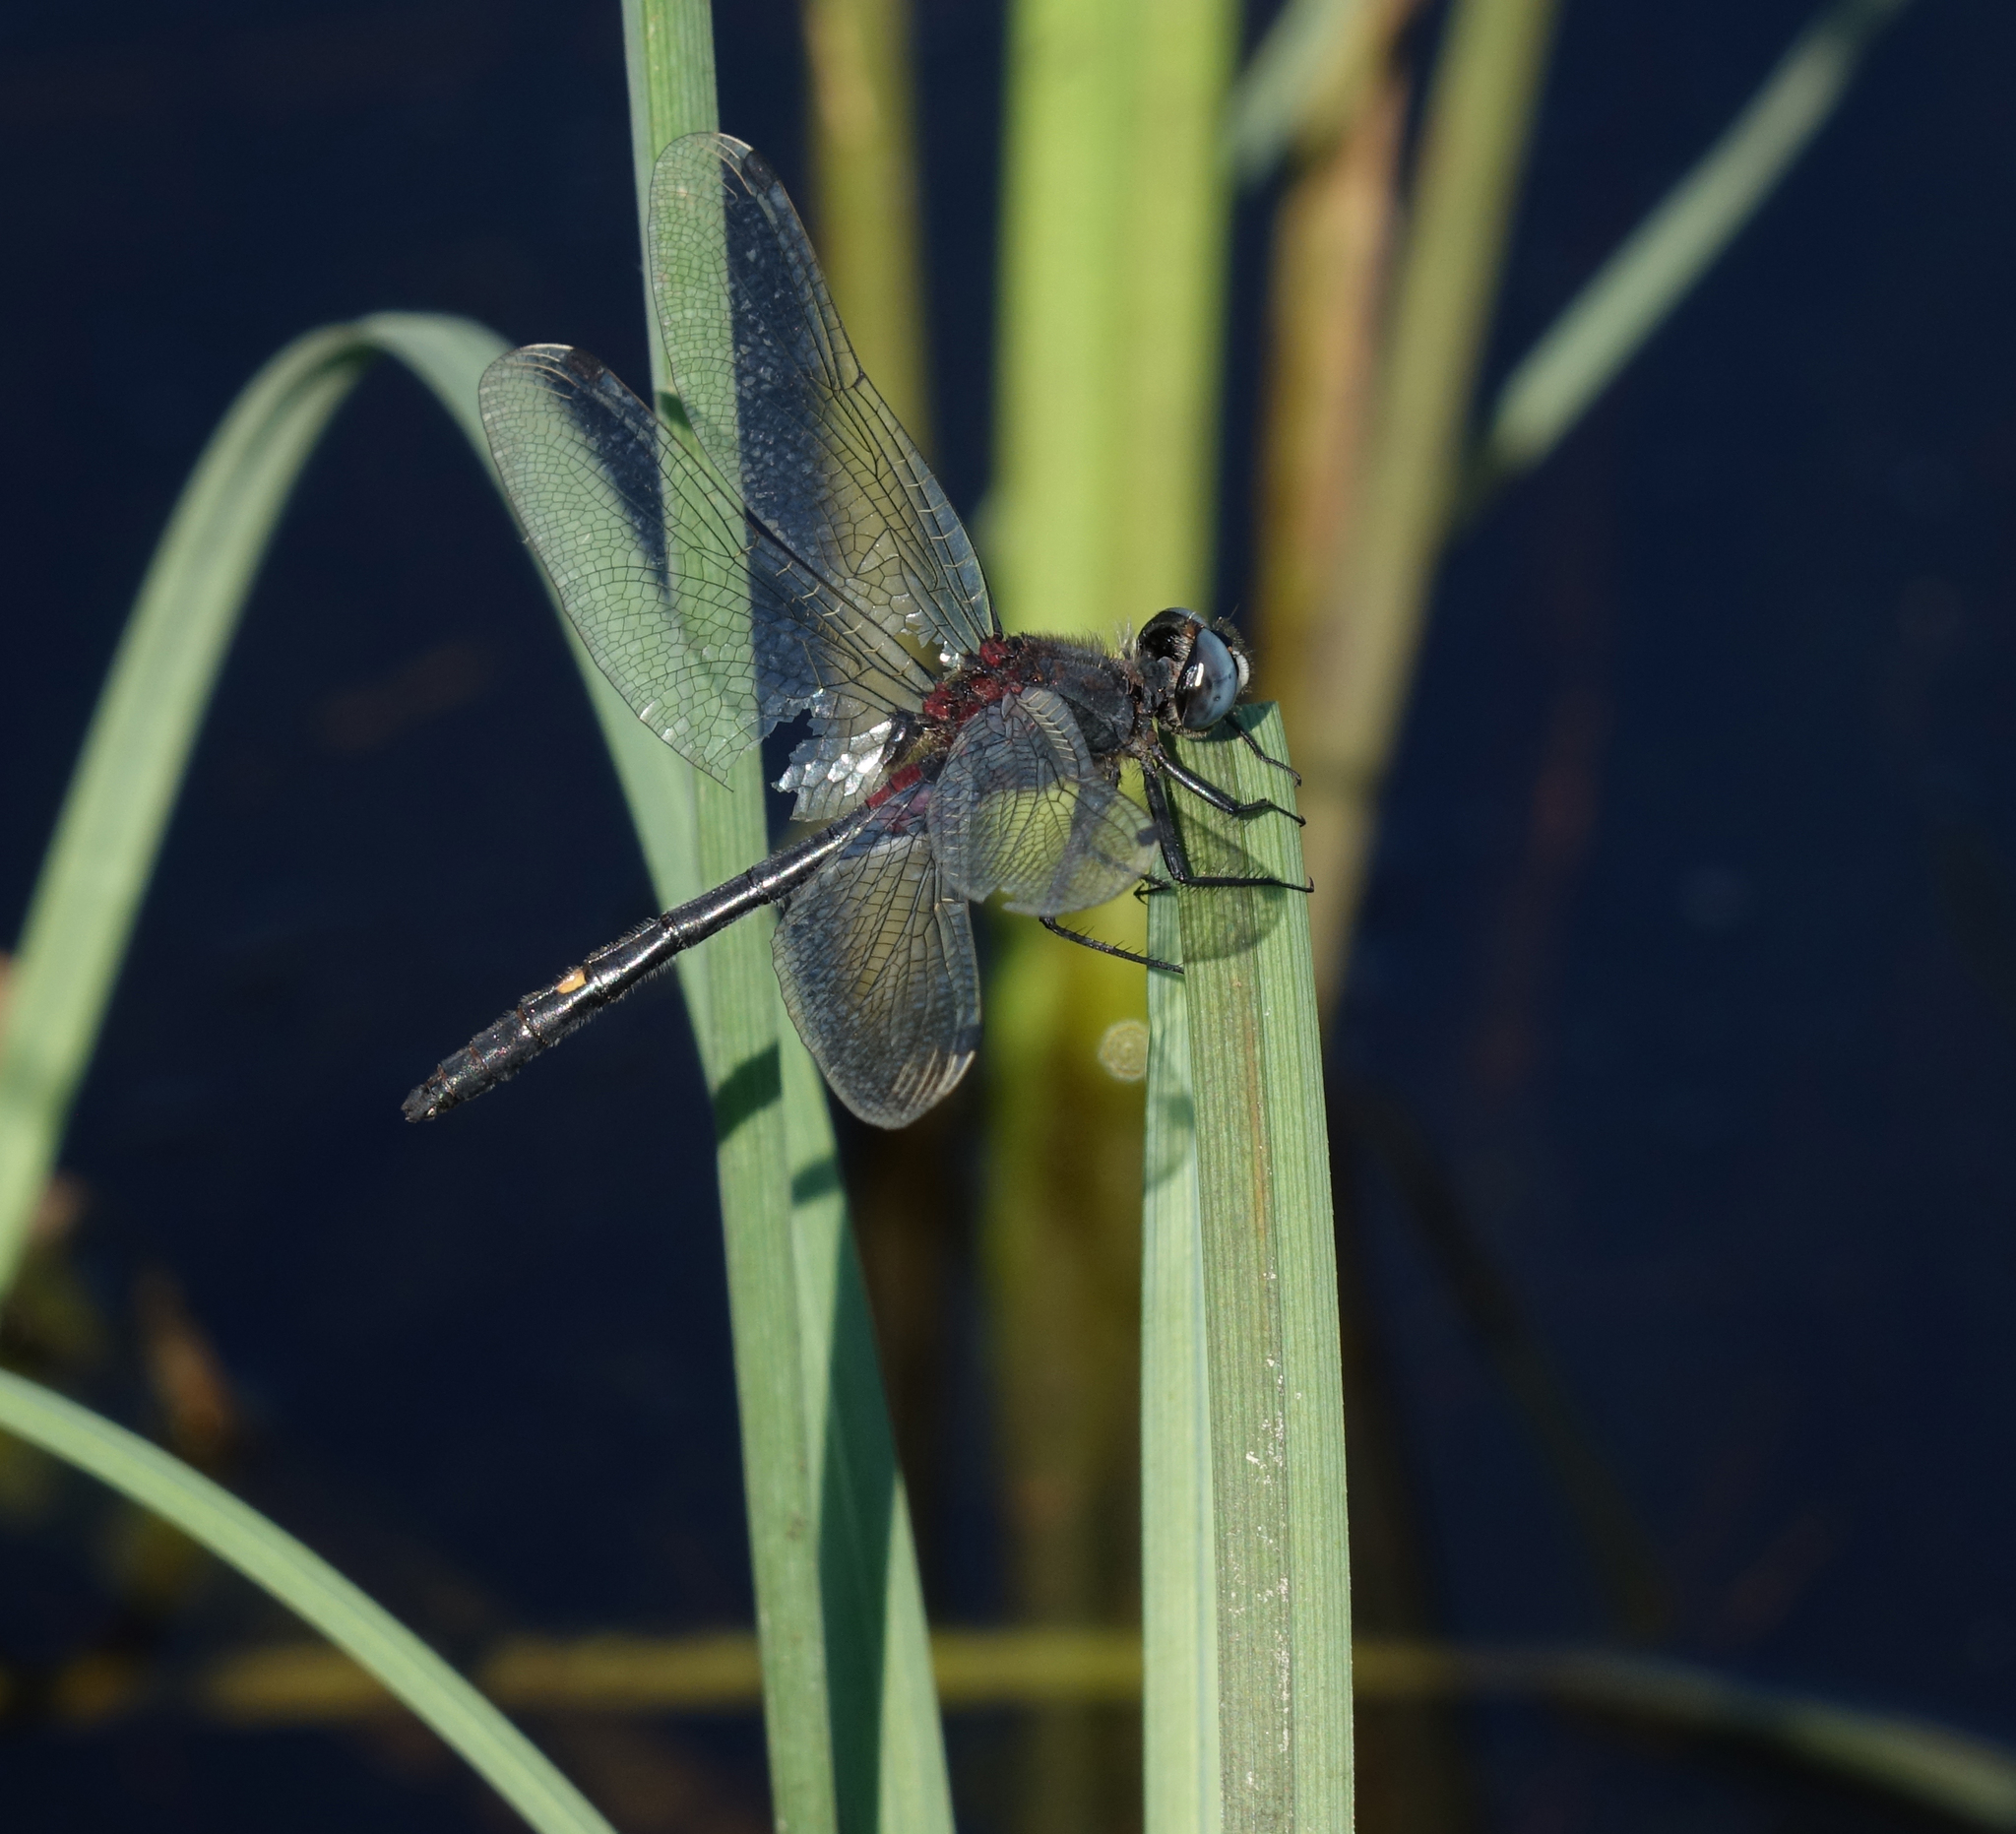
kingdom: Animalia
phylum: Arthropoda
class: Insecta
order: Odonata
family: Libellulidae
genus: Leucorrhinia
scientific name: Leucorrhinia orientalis
